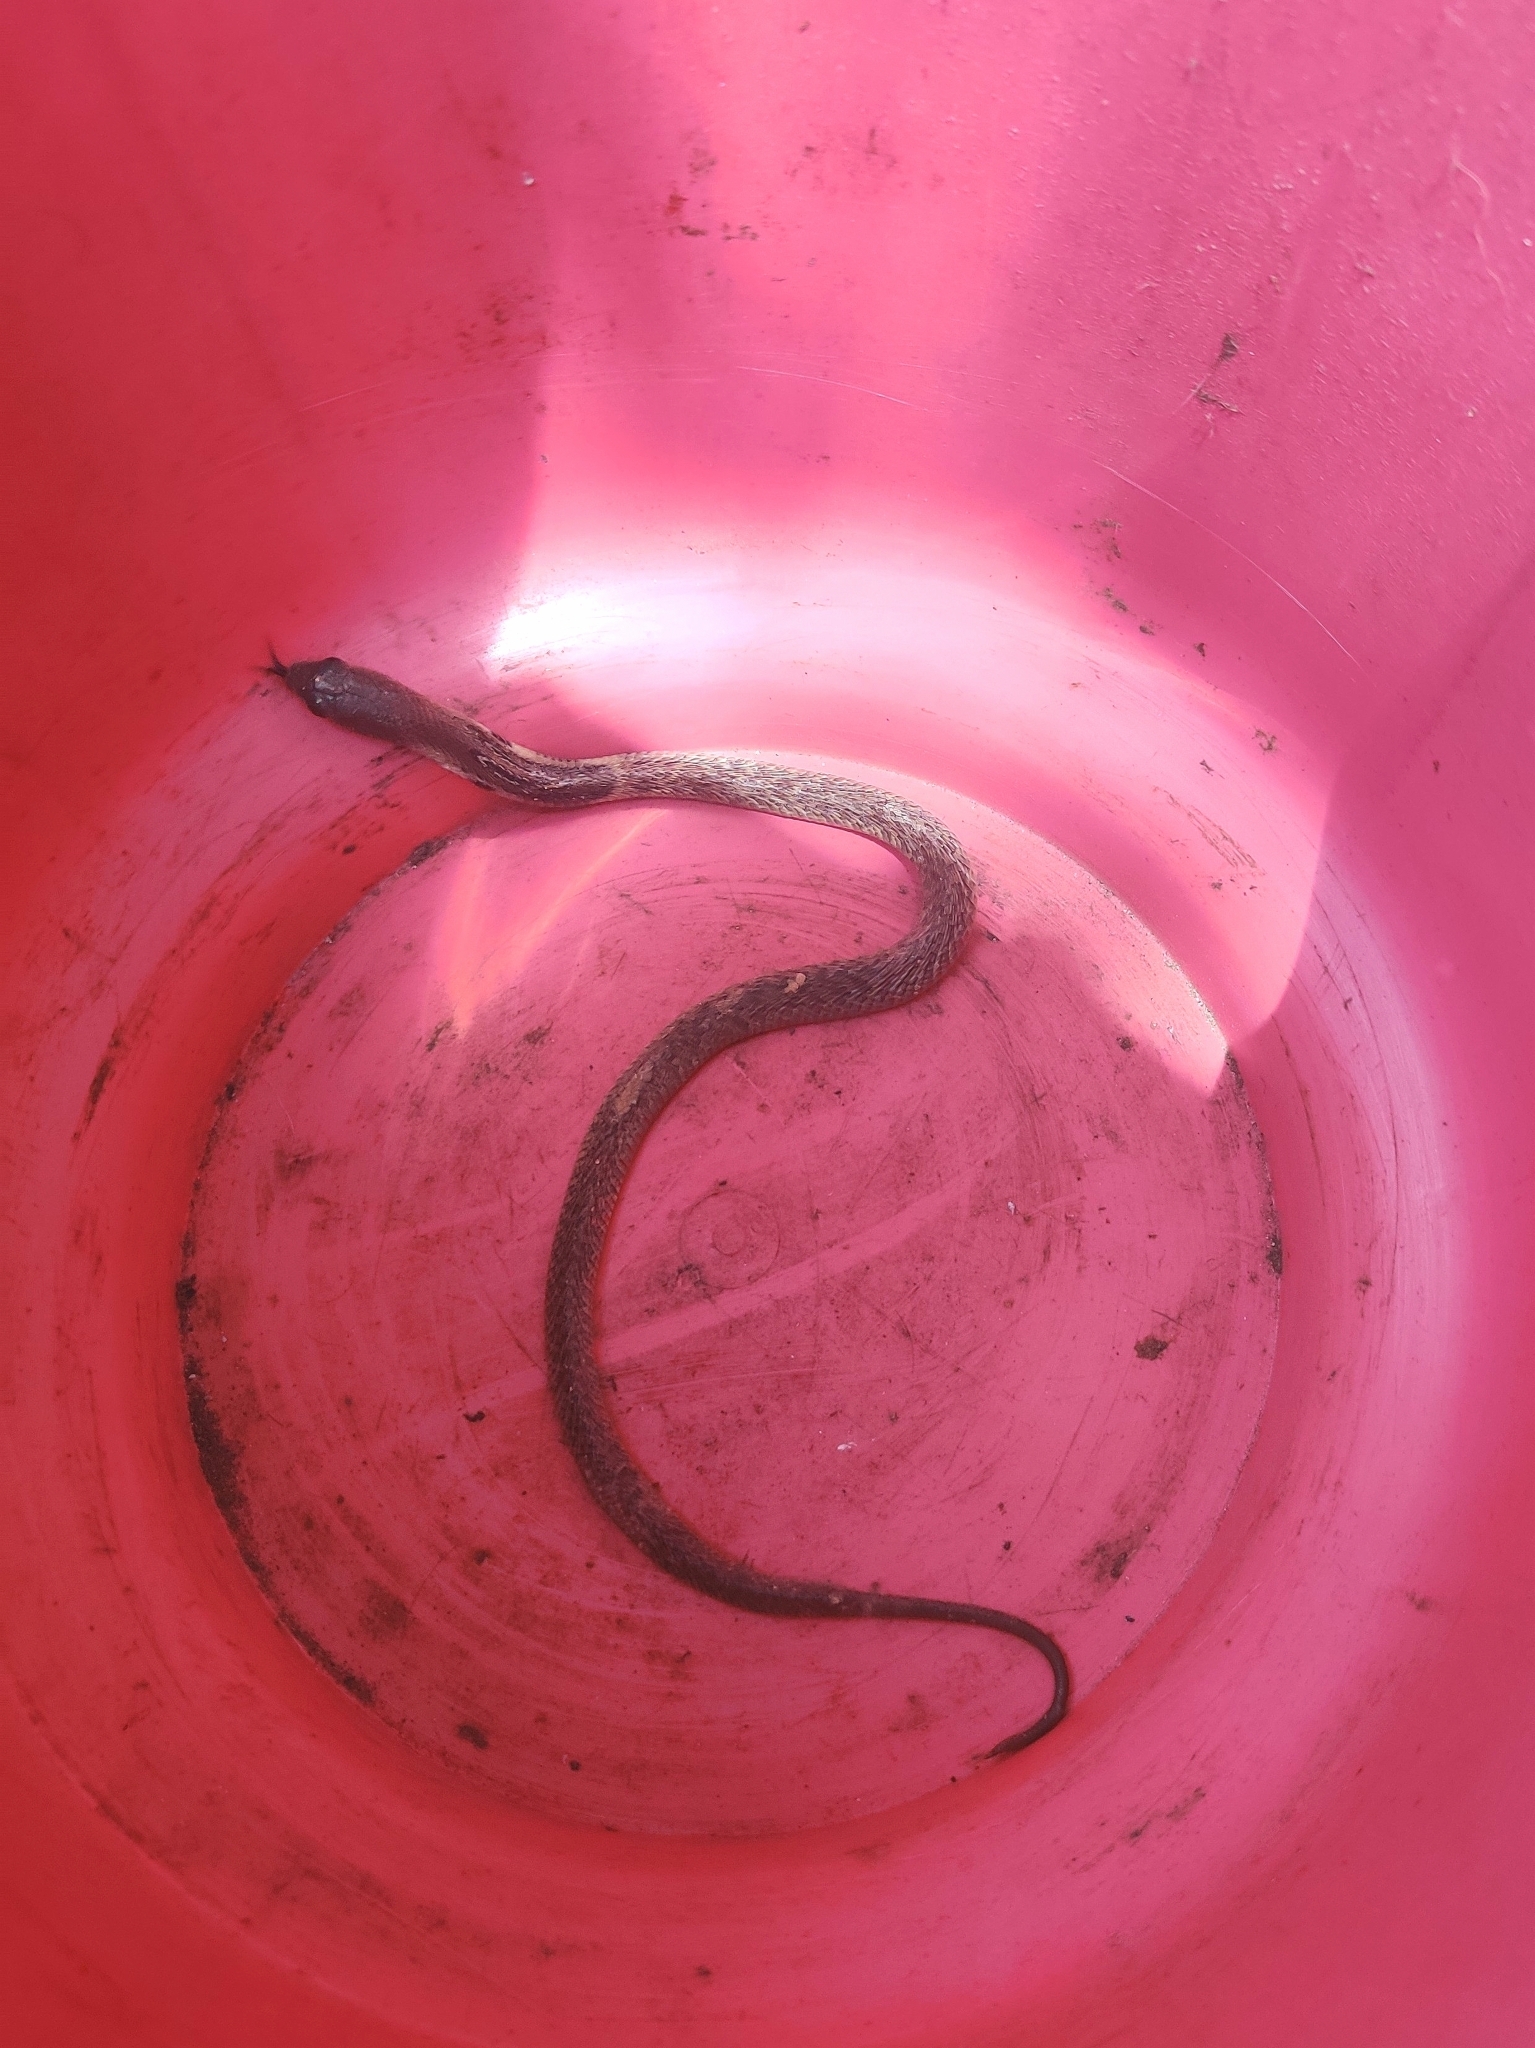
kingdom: Animalia
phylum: Chordata
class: Squamata
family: Elapidae
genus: Naja
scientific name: Naja naja
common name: Indian cobra
